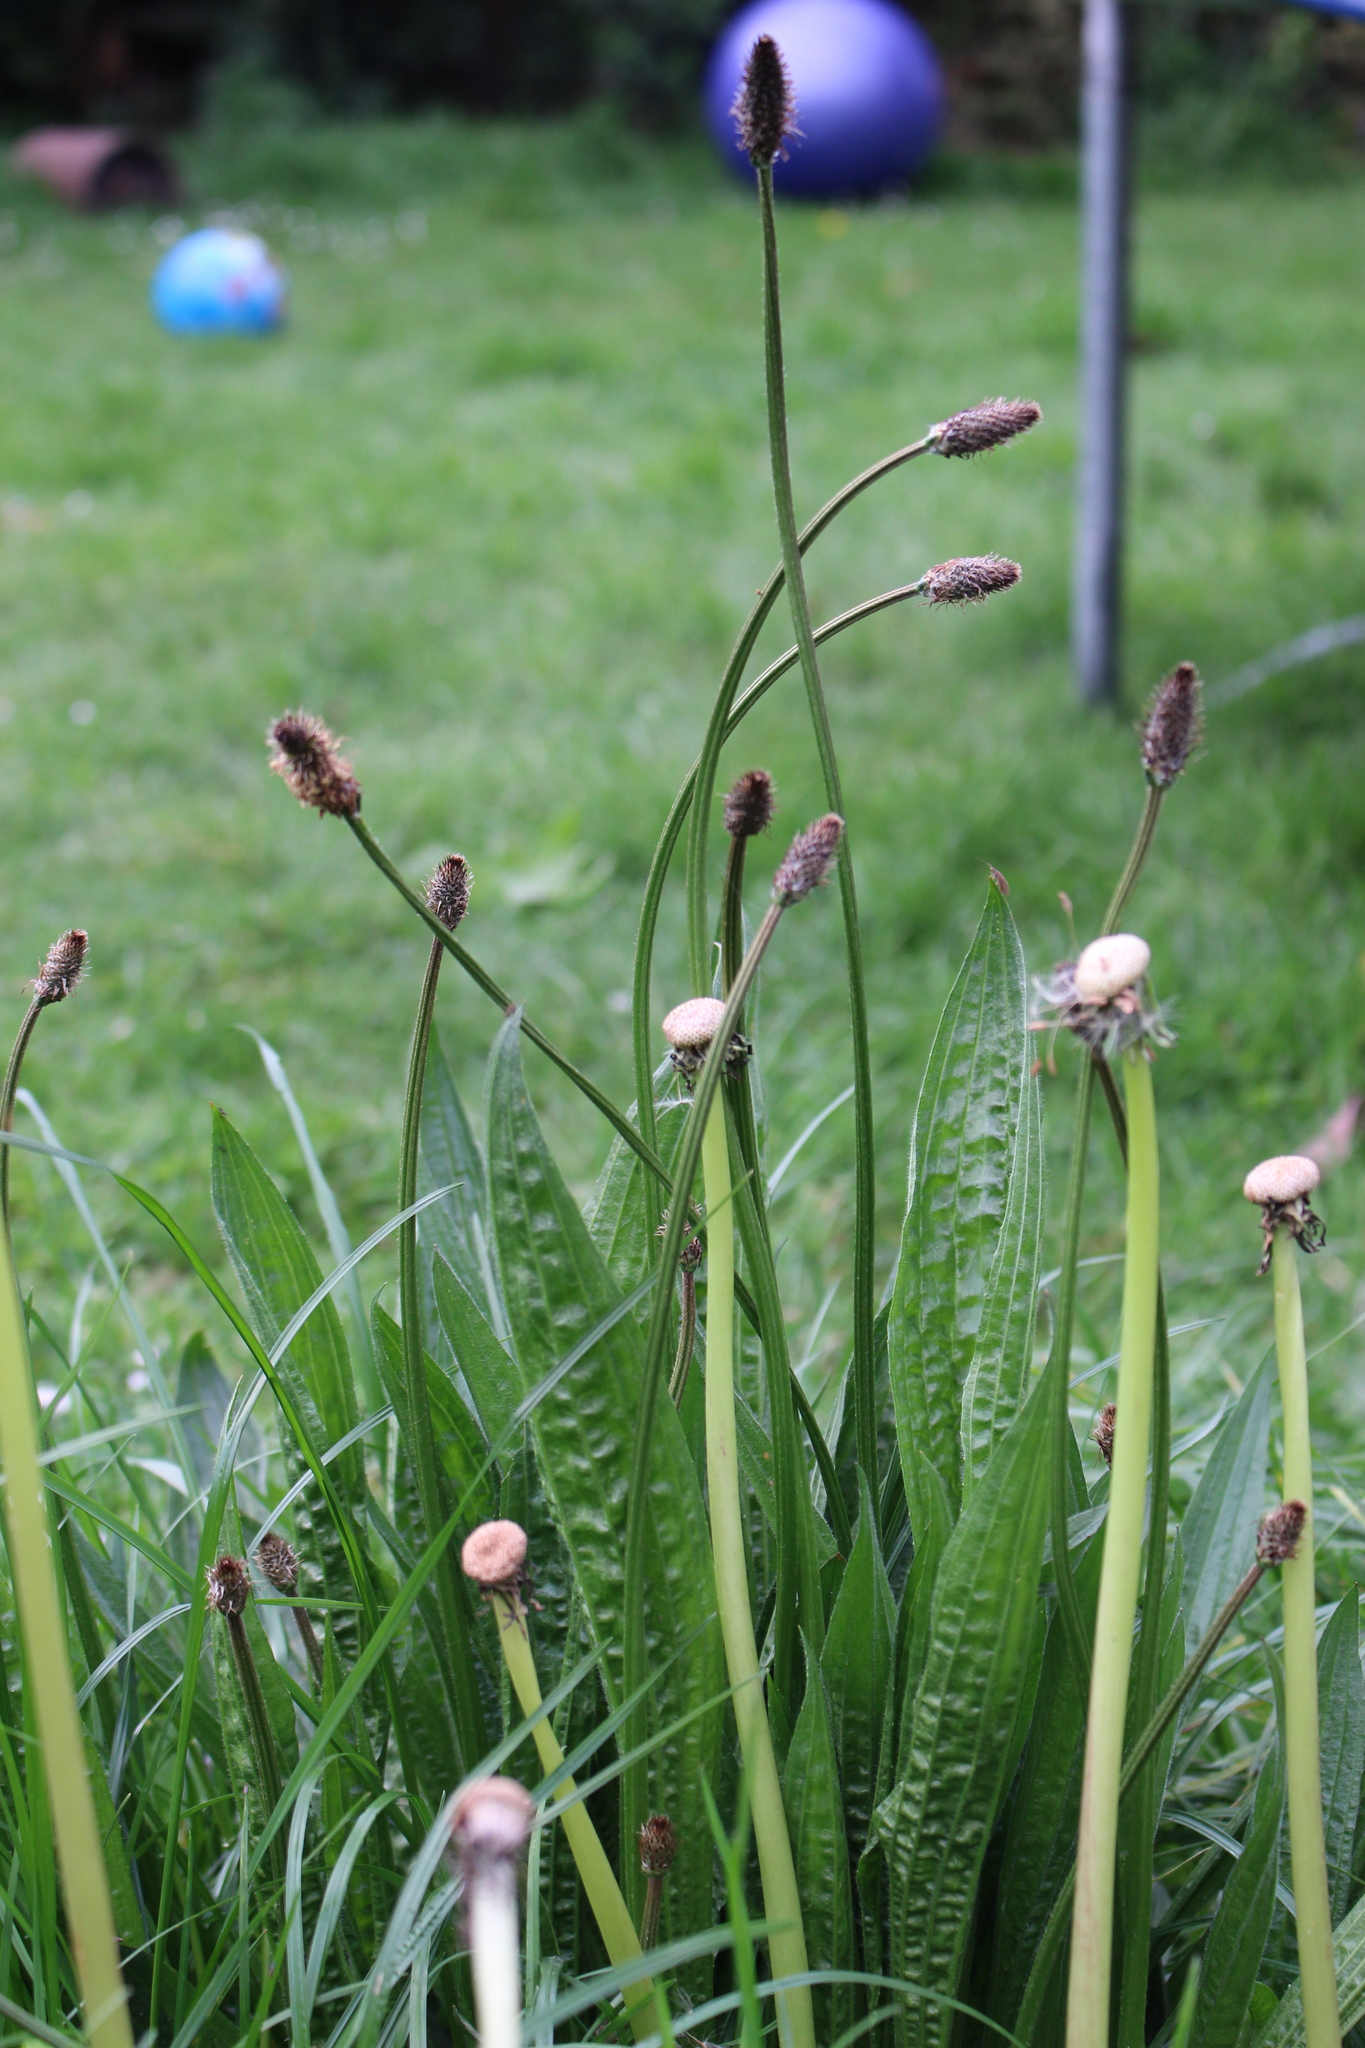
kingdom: Plantae
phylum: Tracheophyta
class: Magnoliopsida
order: Asterales
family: Asteraceae
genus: Taraxacum
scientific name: Taraxacum officinale
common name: Common dandelion
